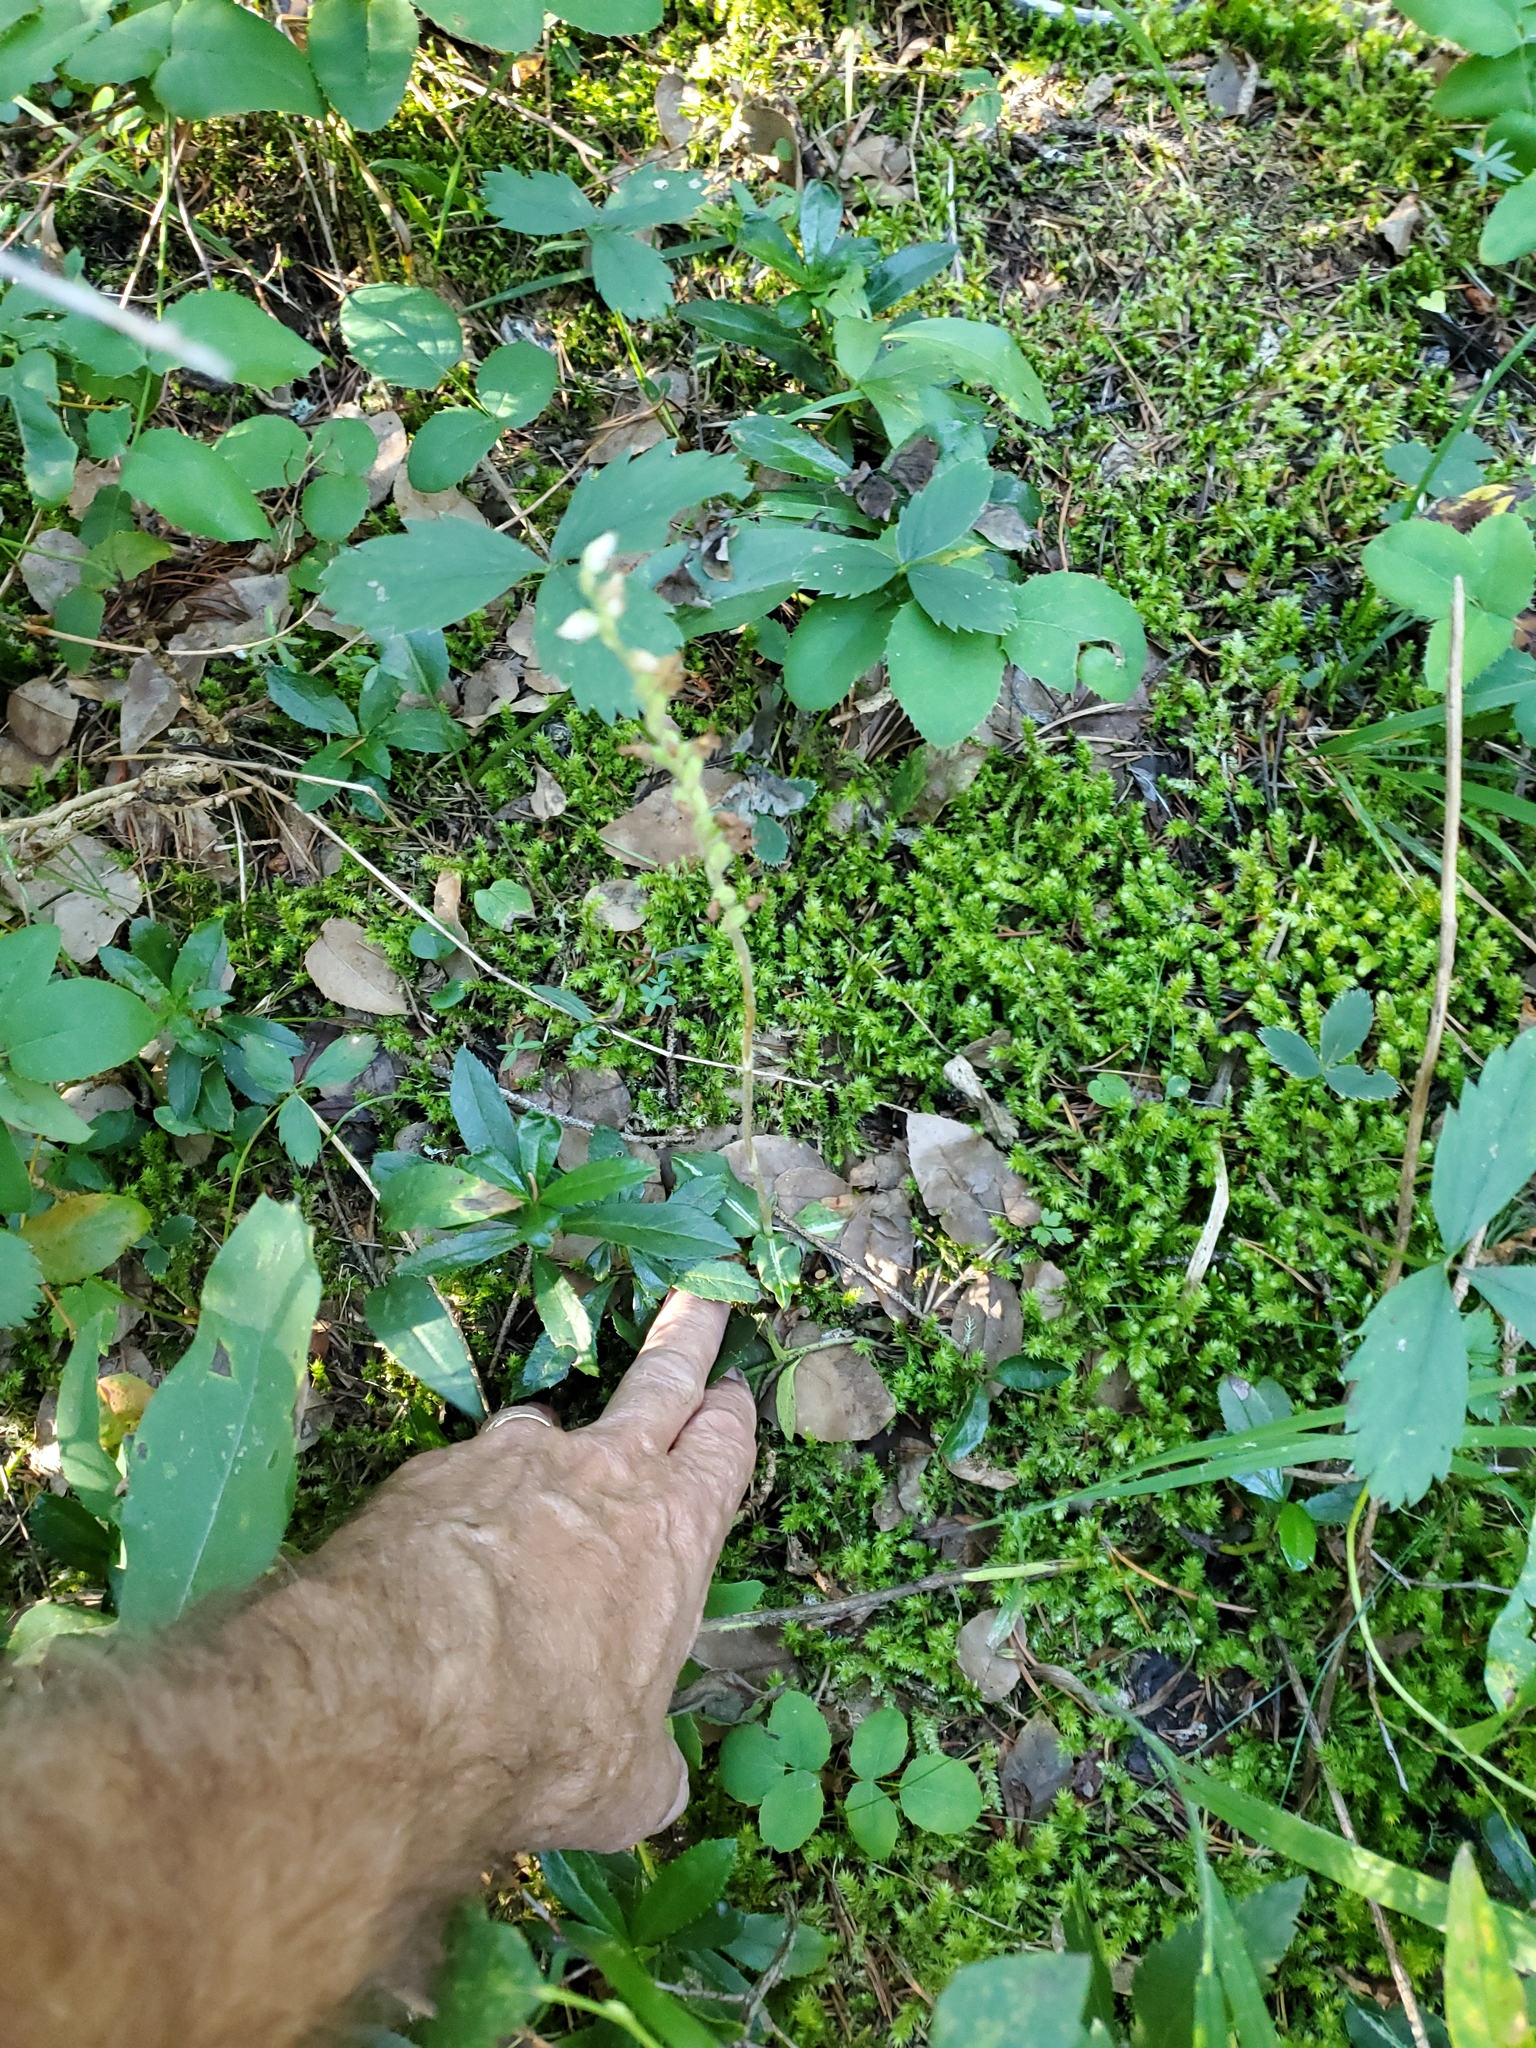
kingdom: Plantae
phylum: Tracheophyta
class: Liliopsida
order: Asparagales
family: Orchidaceae
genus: Goodyera
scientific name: Goodyera oblongifolia
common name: Giant rattlesnake-plantain
